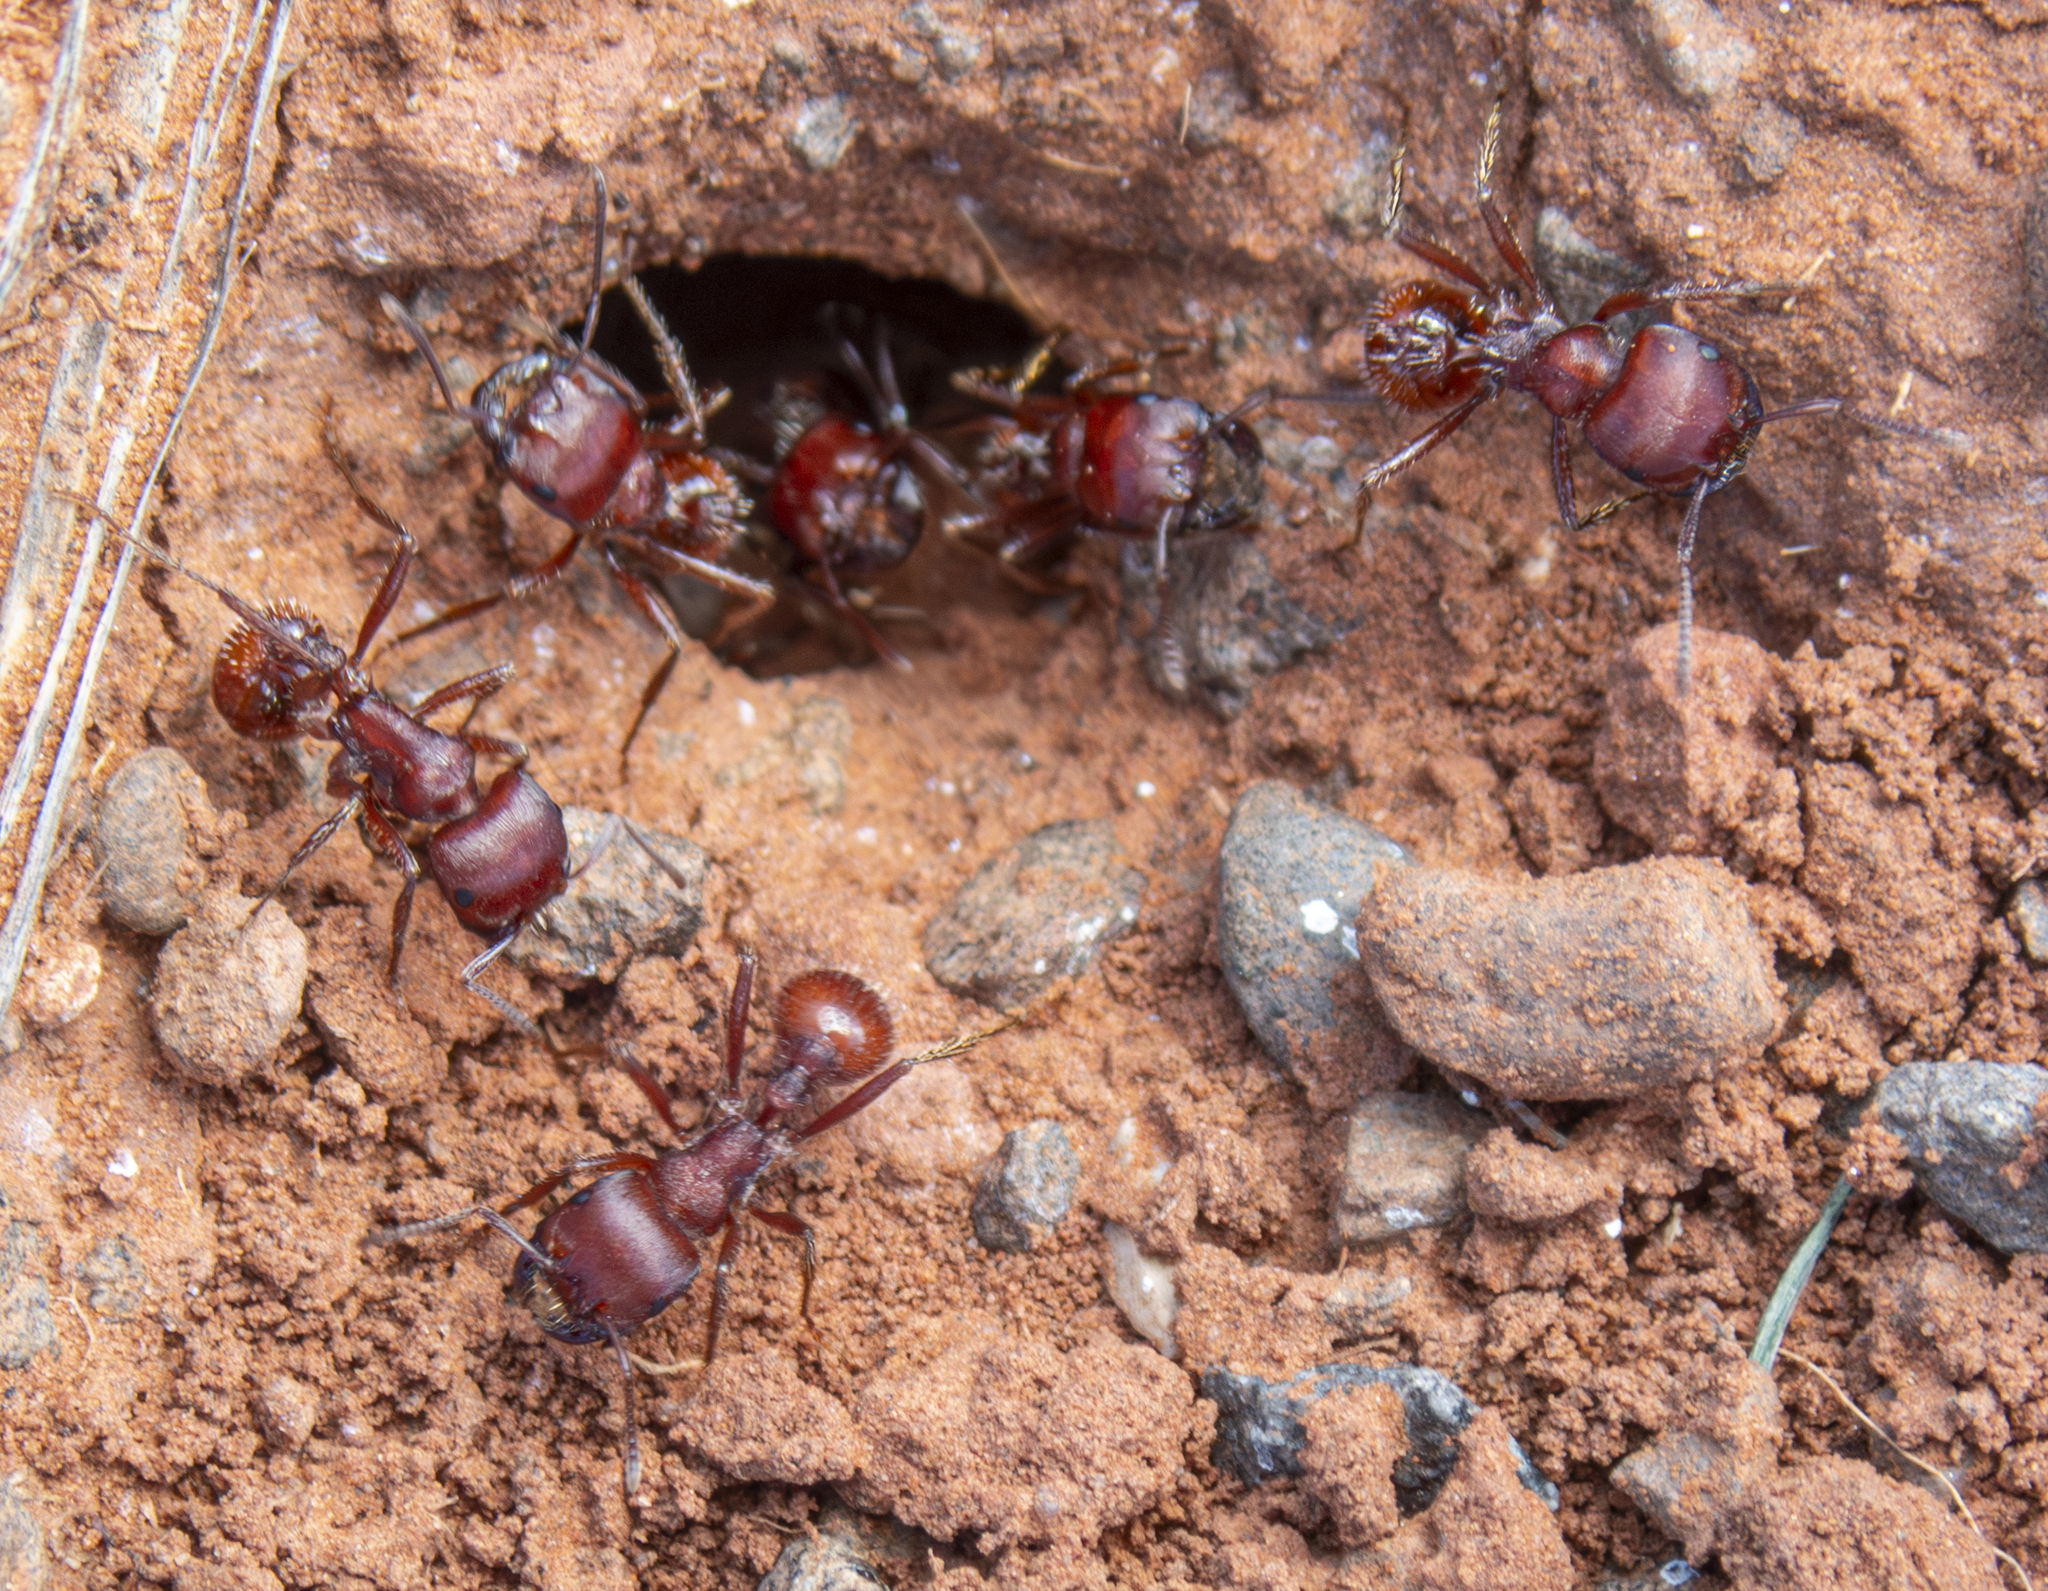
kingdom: Animalia
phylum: Arthropoda
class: Insecta
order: Hymenoptera
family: Formicidae
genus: Pogonomyrmex
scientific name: Pogonomyrmex barbatus
